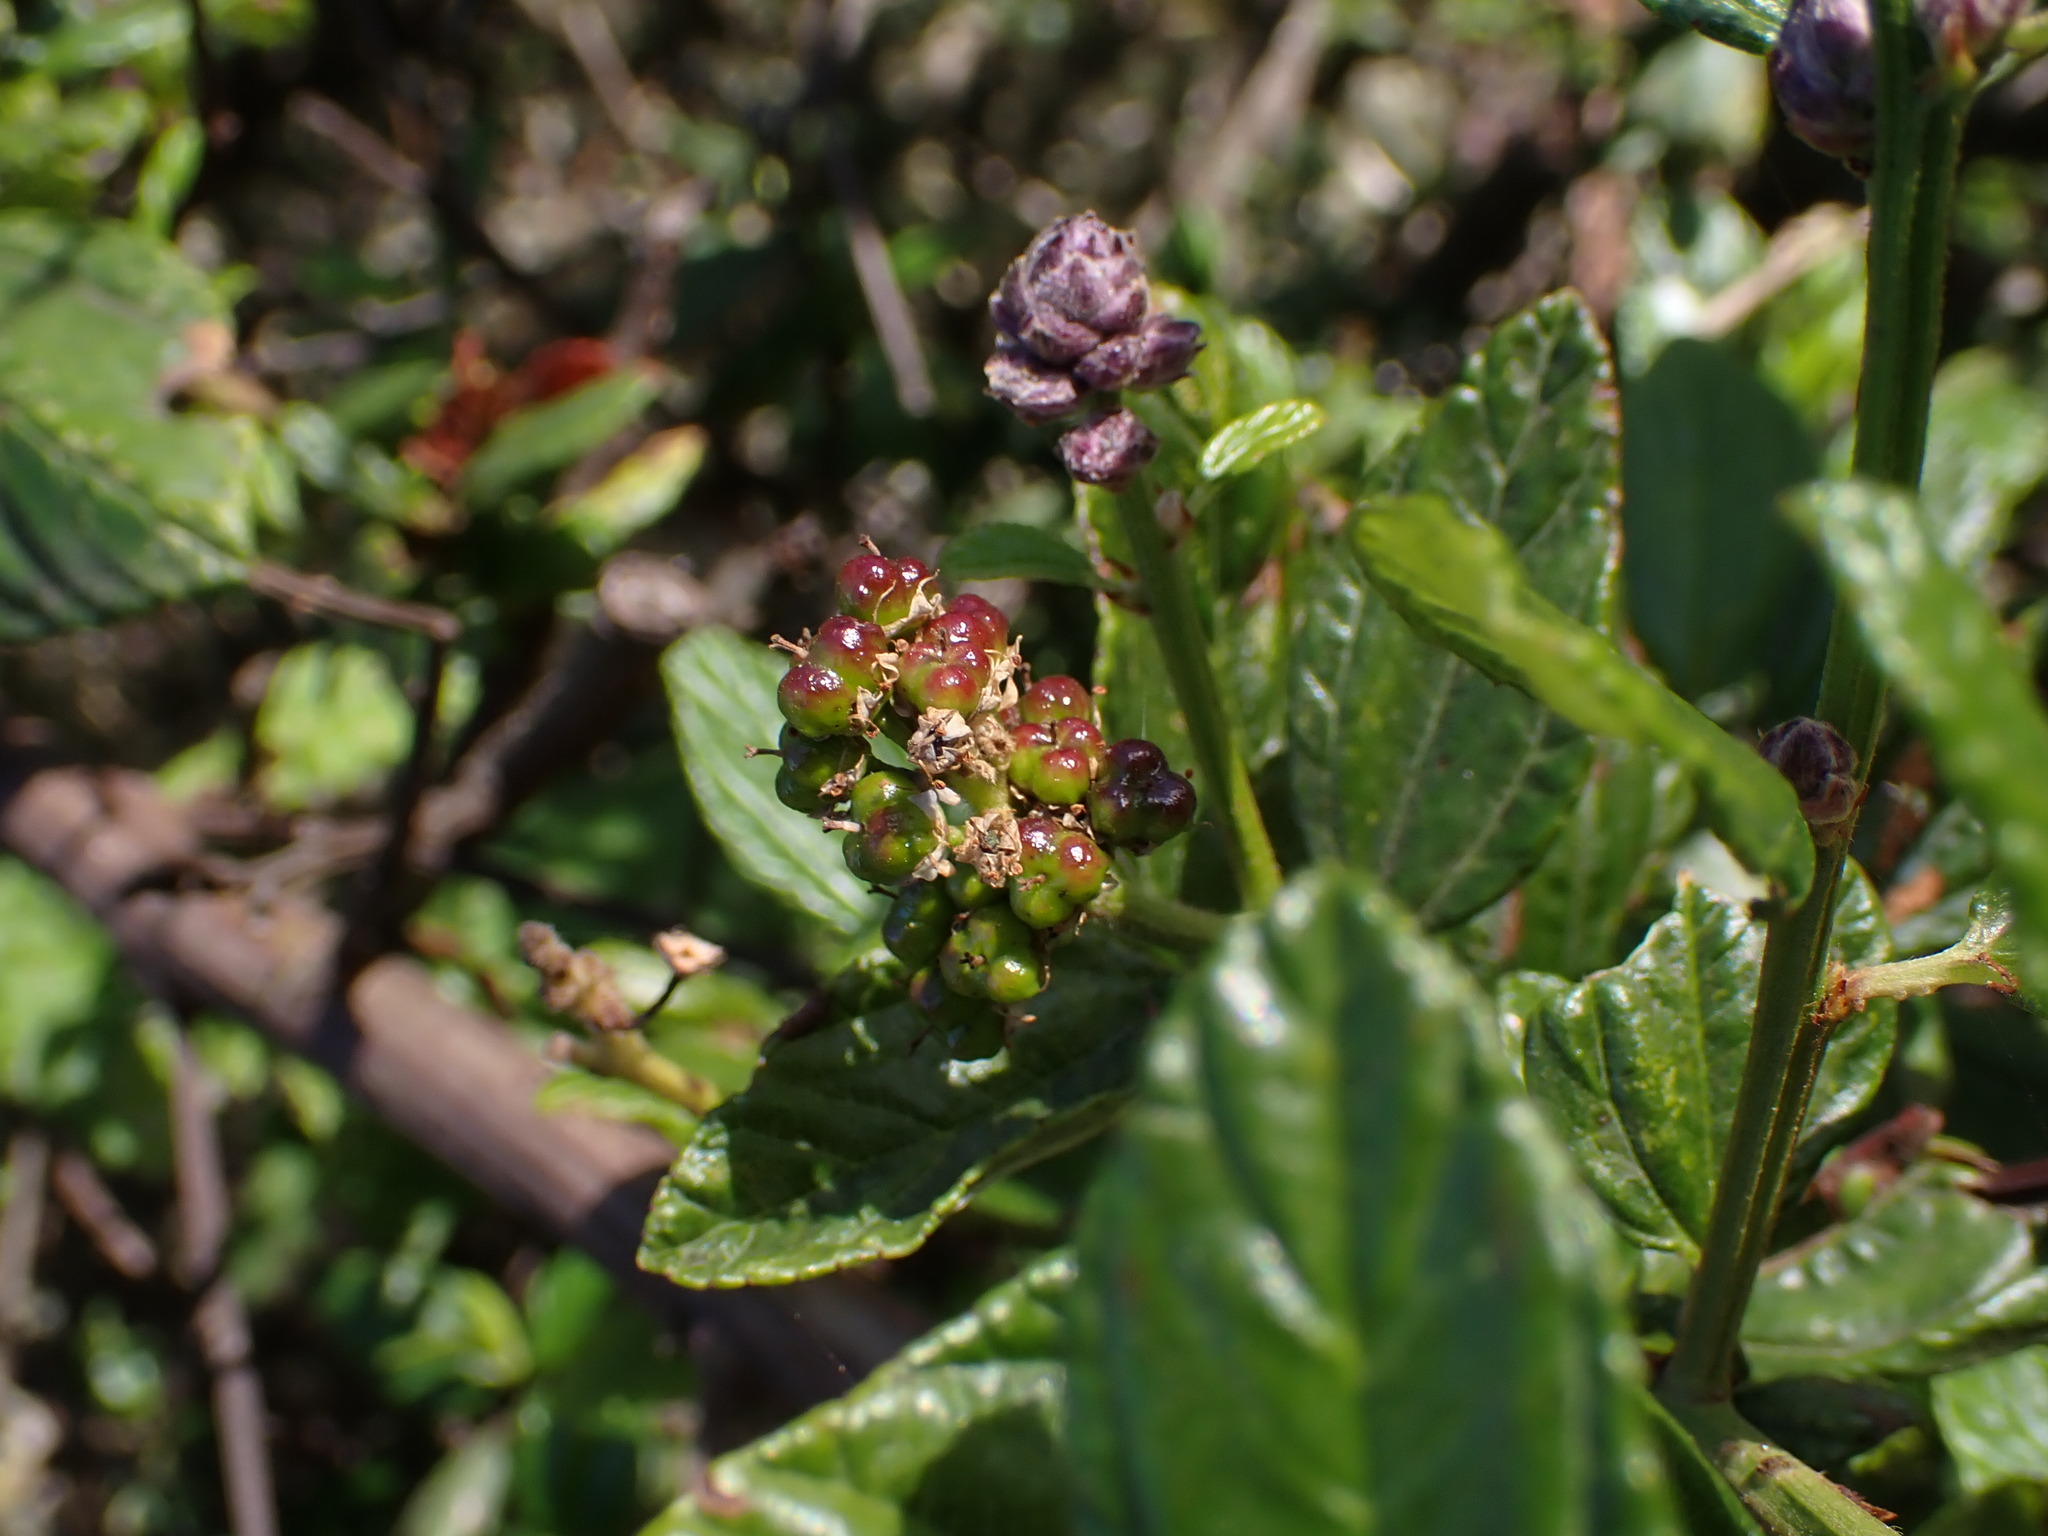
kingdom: Plantae
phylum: Tracheophyta
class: Magnoliopsida
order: Rosales
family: Rhamnaceae
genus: Ceanothus
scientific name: Ceanothus thyrsiflorus
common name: California-lilac
